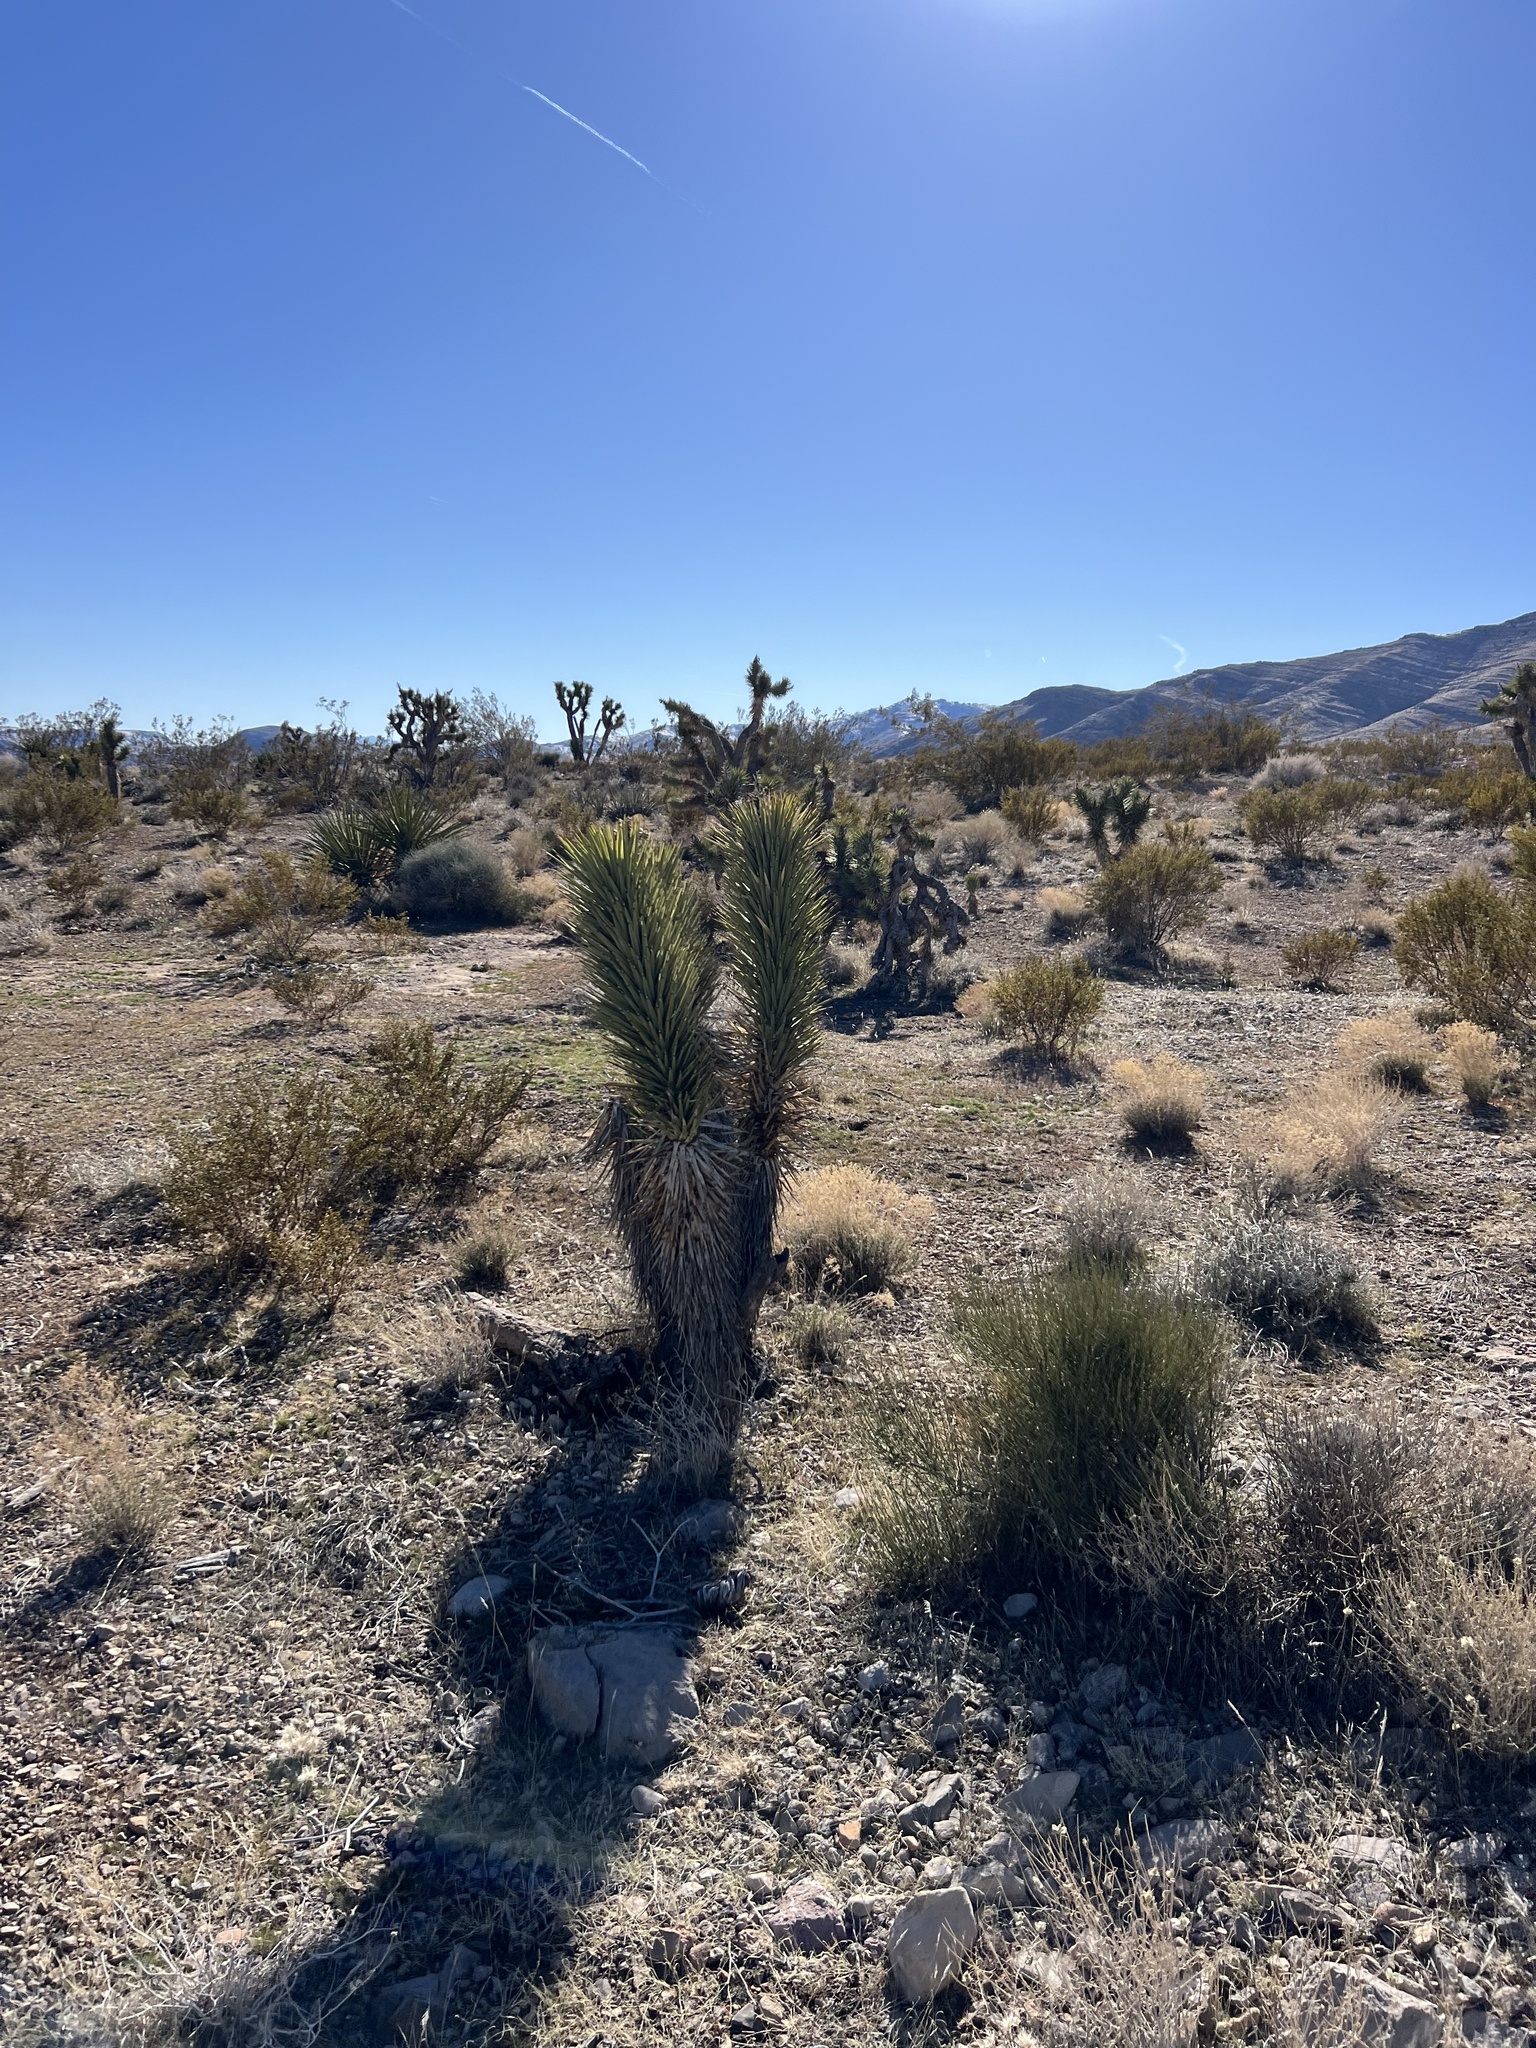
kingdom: Plantae
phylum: Tracheophyta
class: Liliopsida
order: Asparagales
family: Asparagaceae
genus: Yucca
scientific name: Yucca brevifolia
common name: Joshua tree
